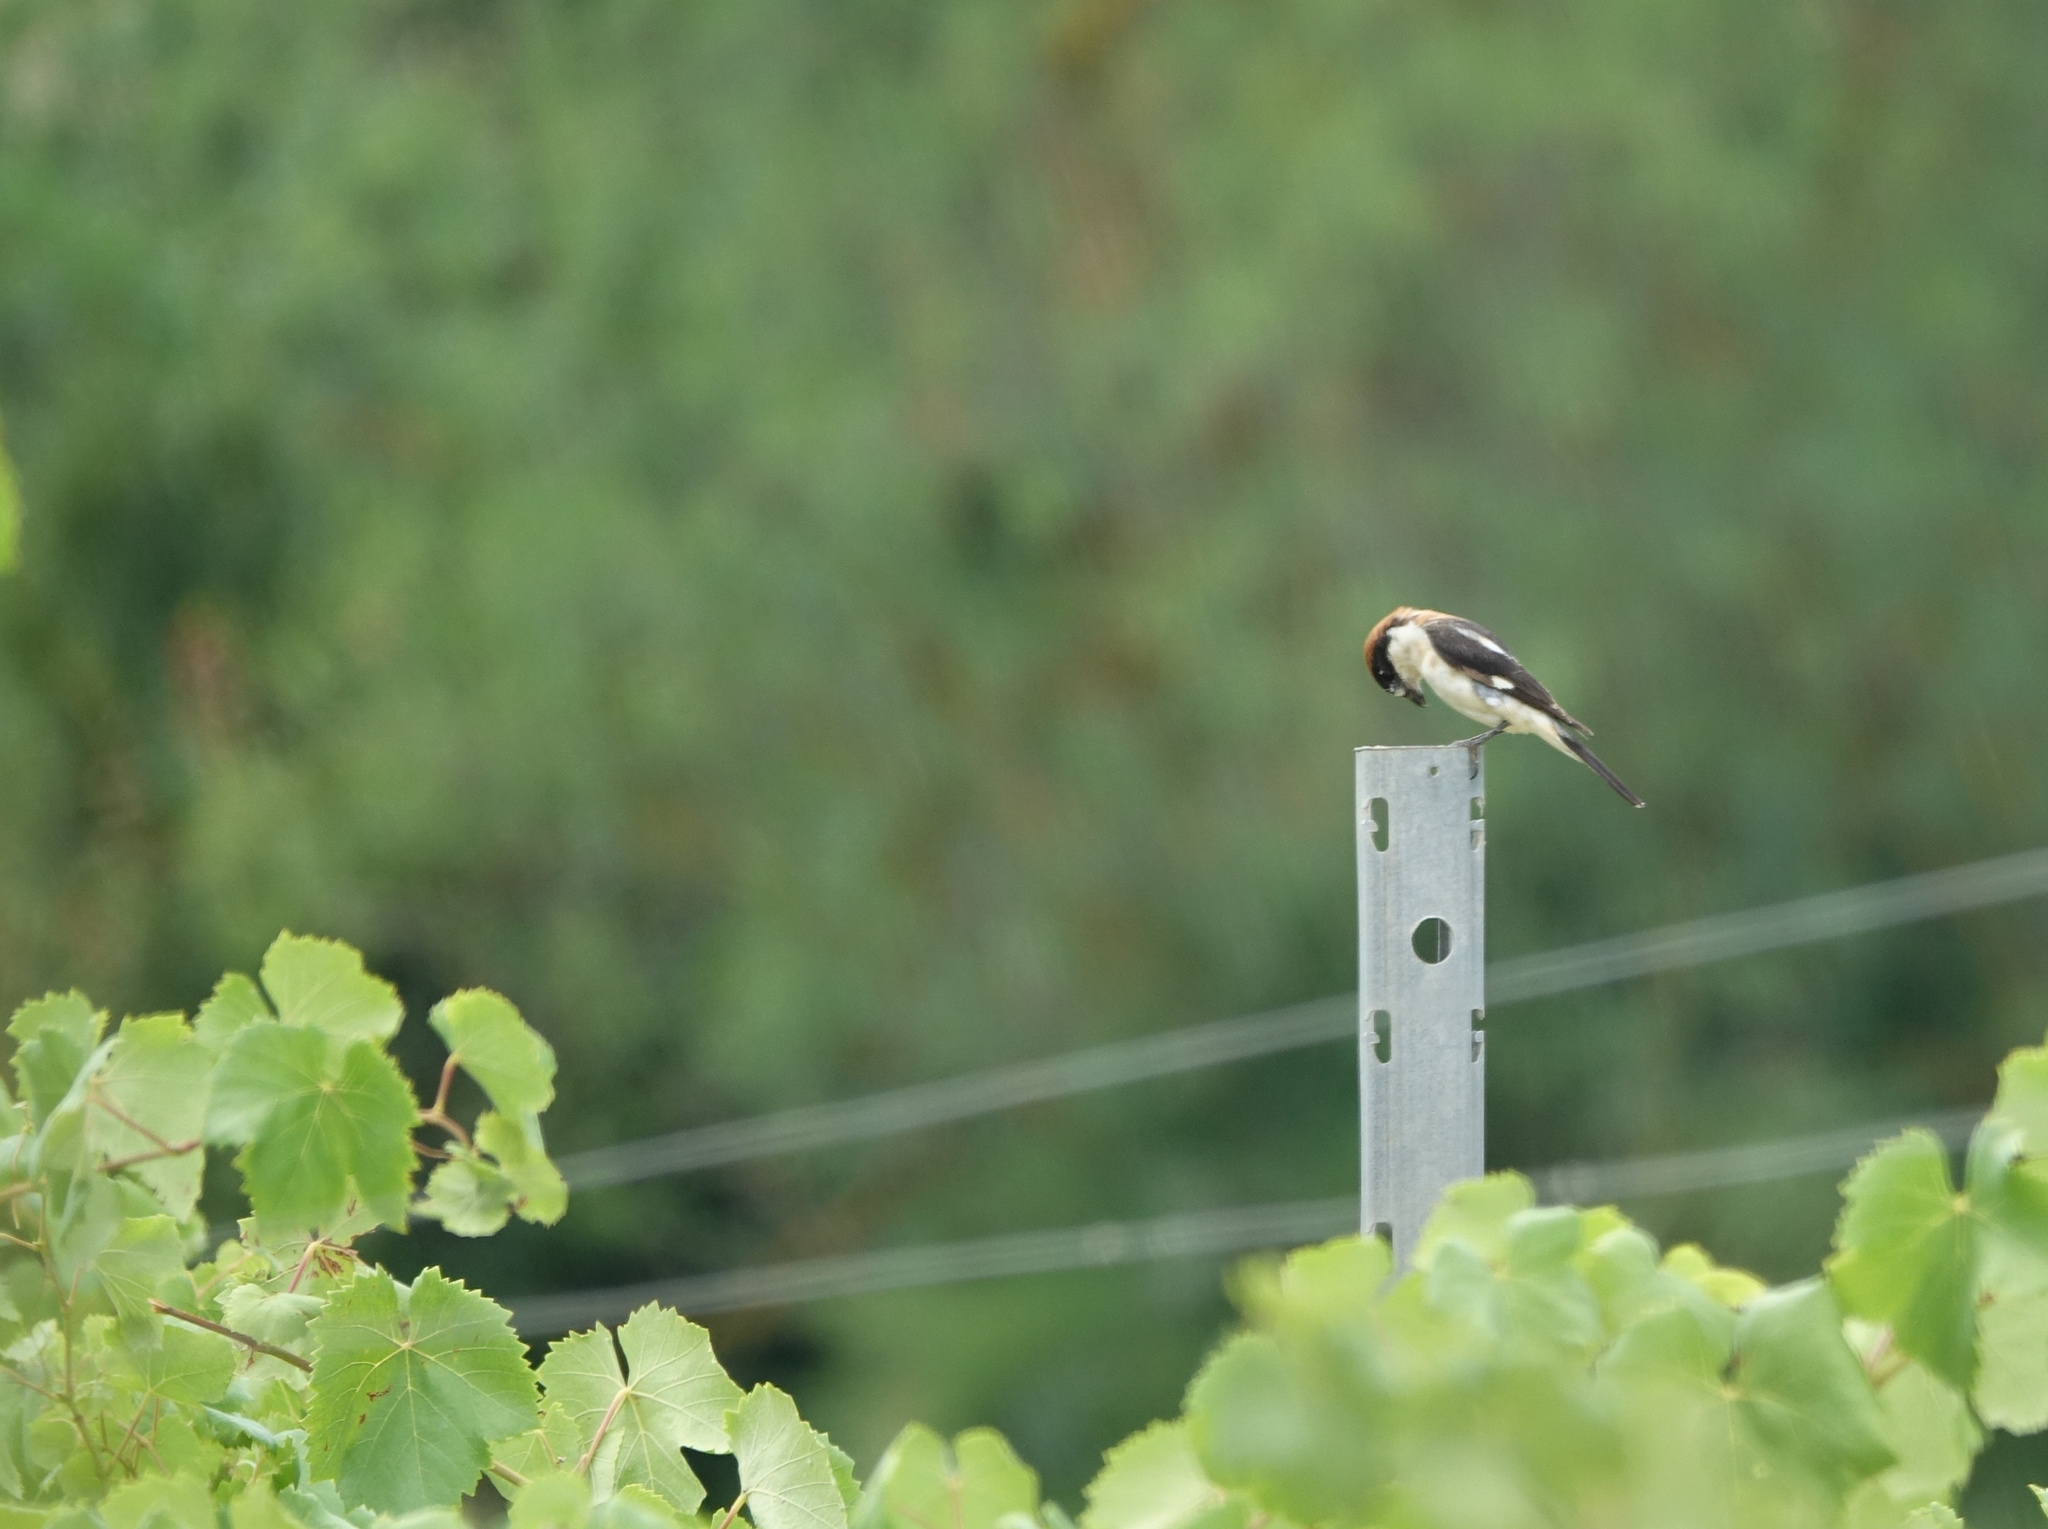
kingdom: Animalia
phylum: Chordata
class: Aves
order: Passeriformes
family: Laniidae
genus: Lanius
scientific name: Lanius senator
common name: Woodchat shrike
